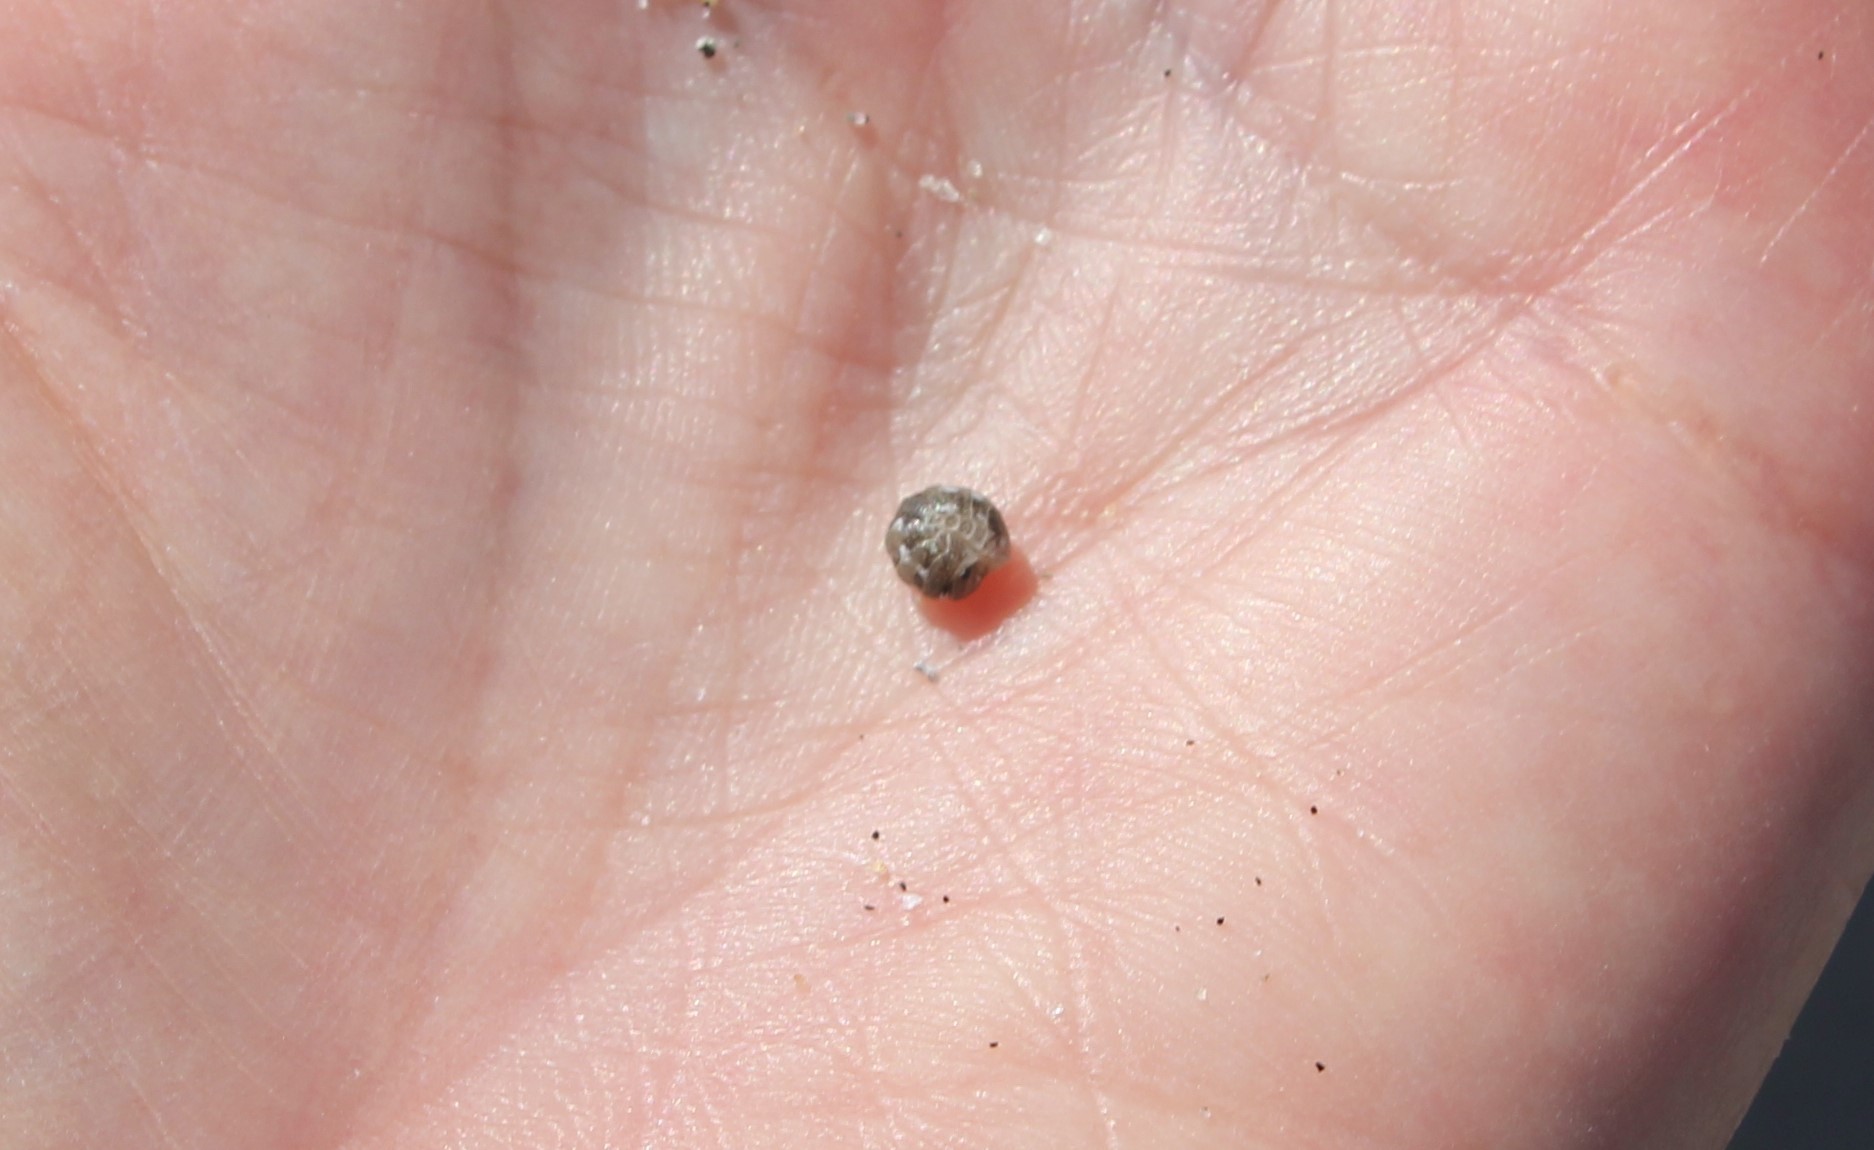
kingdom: Animalia
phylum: Arthropoda
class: Malacostraca
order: Isopoda
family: Tylidae
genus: Tylos
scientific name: Tylos punctatus
